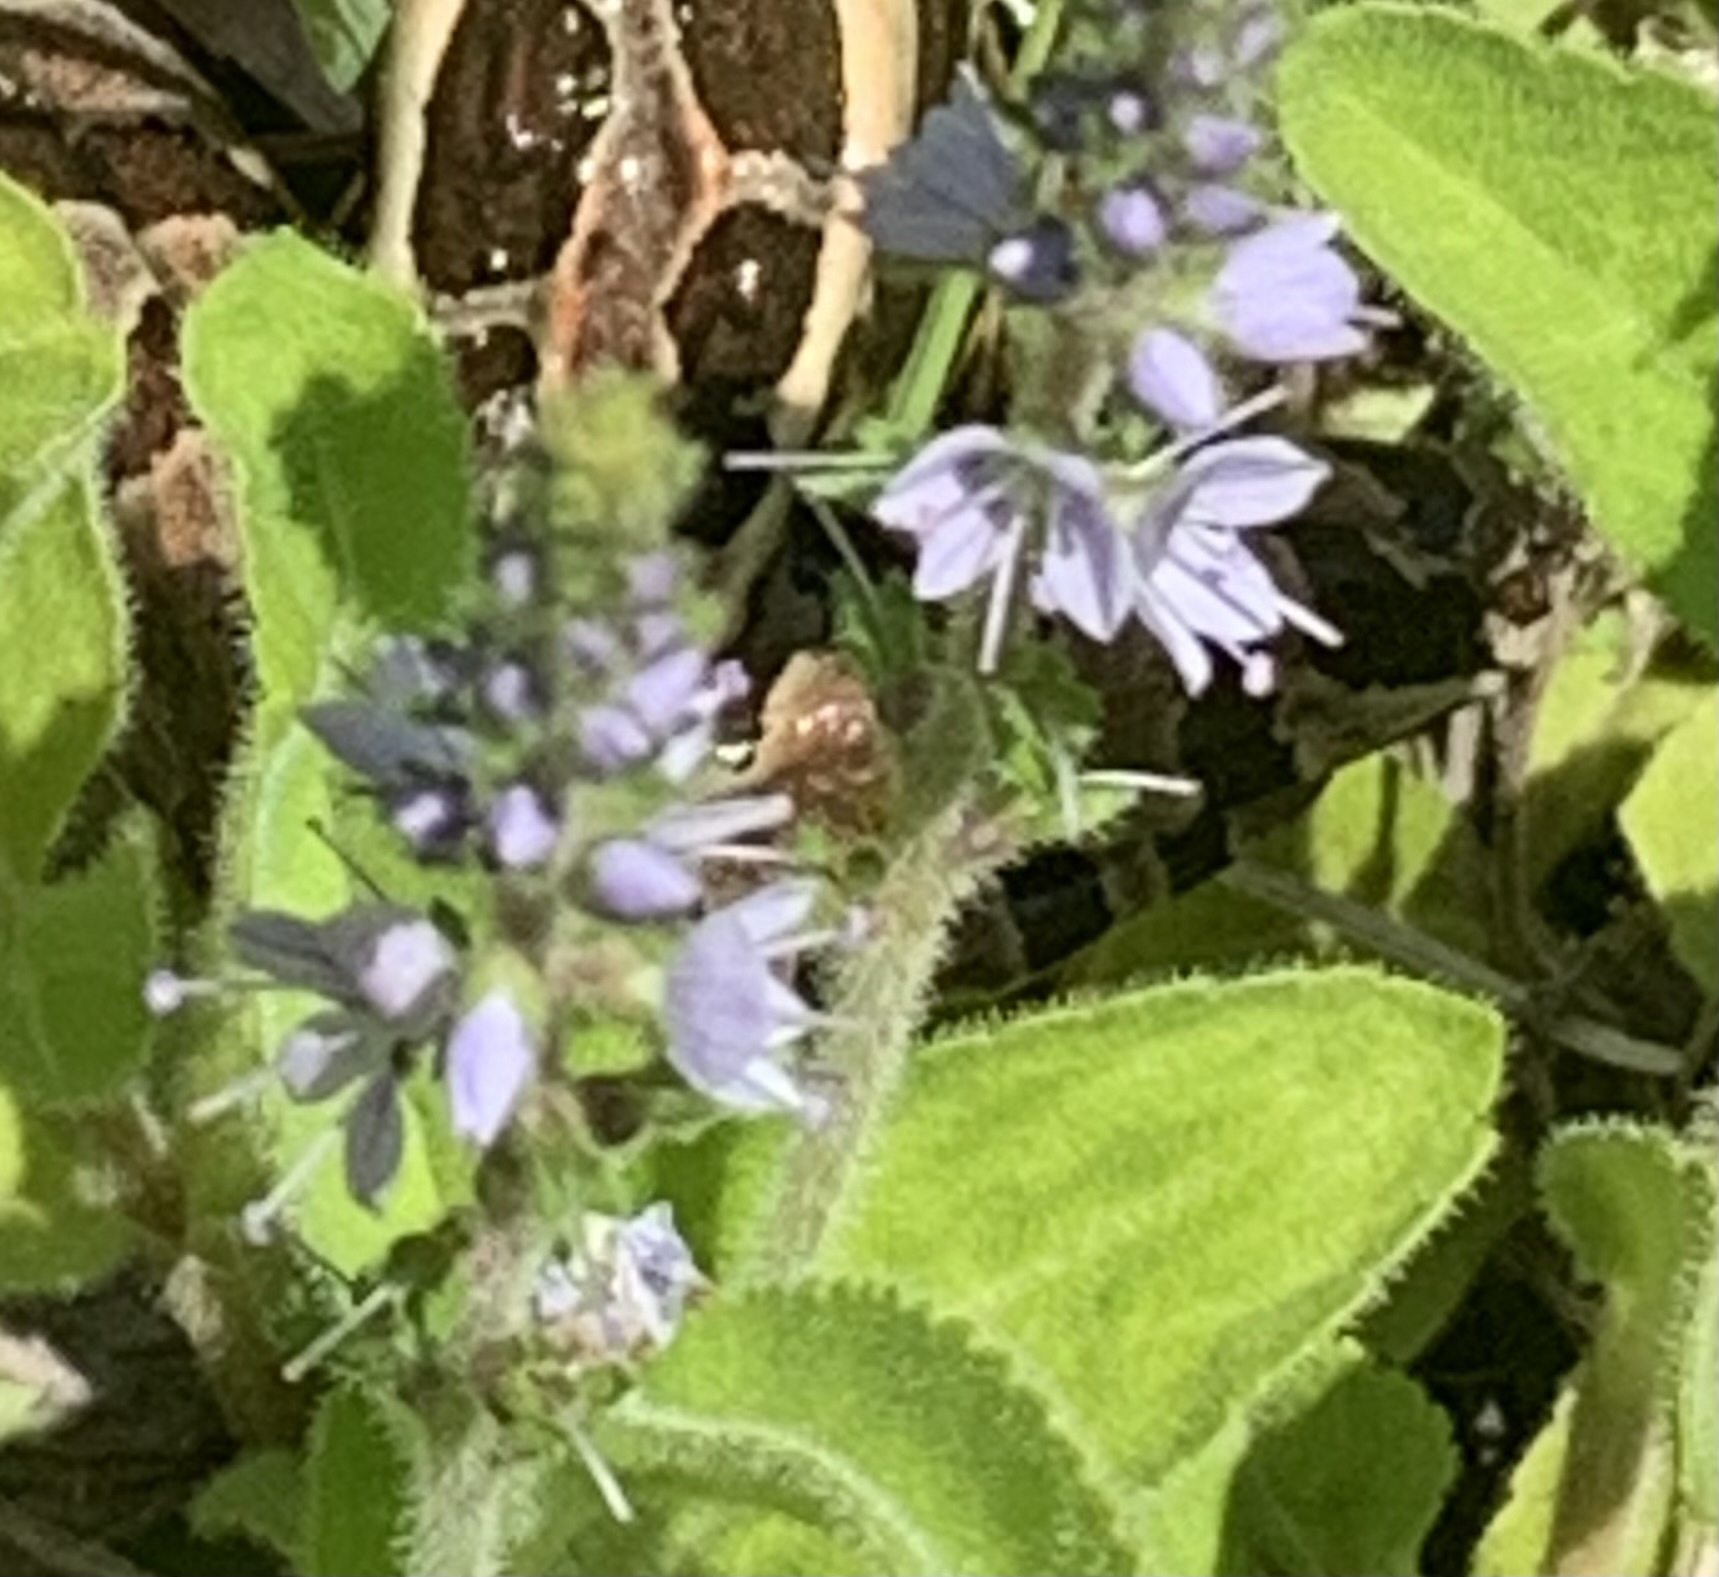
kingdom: Plantae
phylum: Tracheophyta
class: Magnoliopsida
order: Lamiales
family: Plantaginaceae
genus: Veronica
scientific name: Veronica officinalis
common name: Common speedwell
